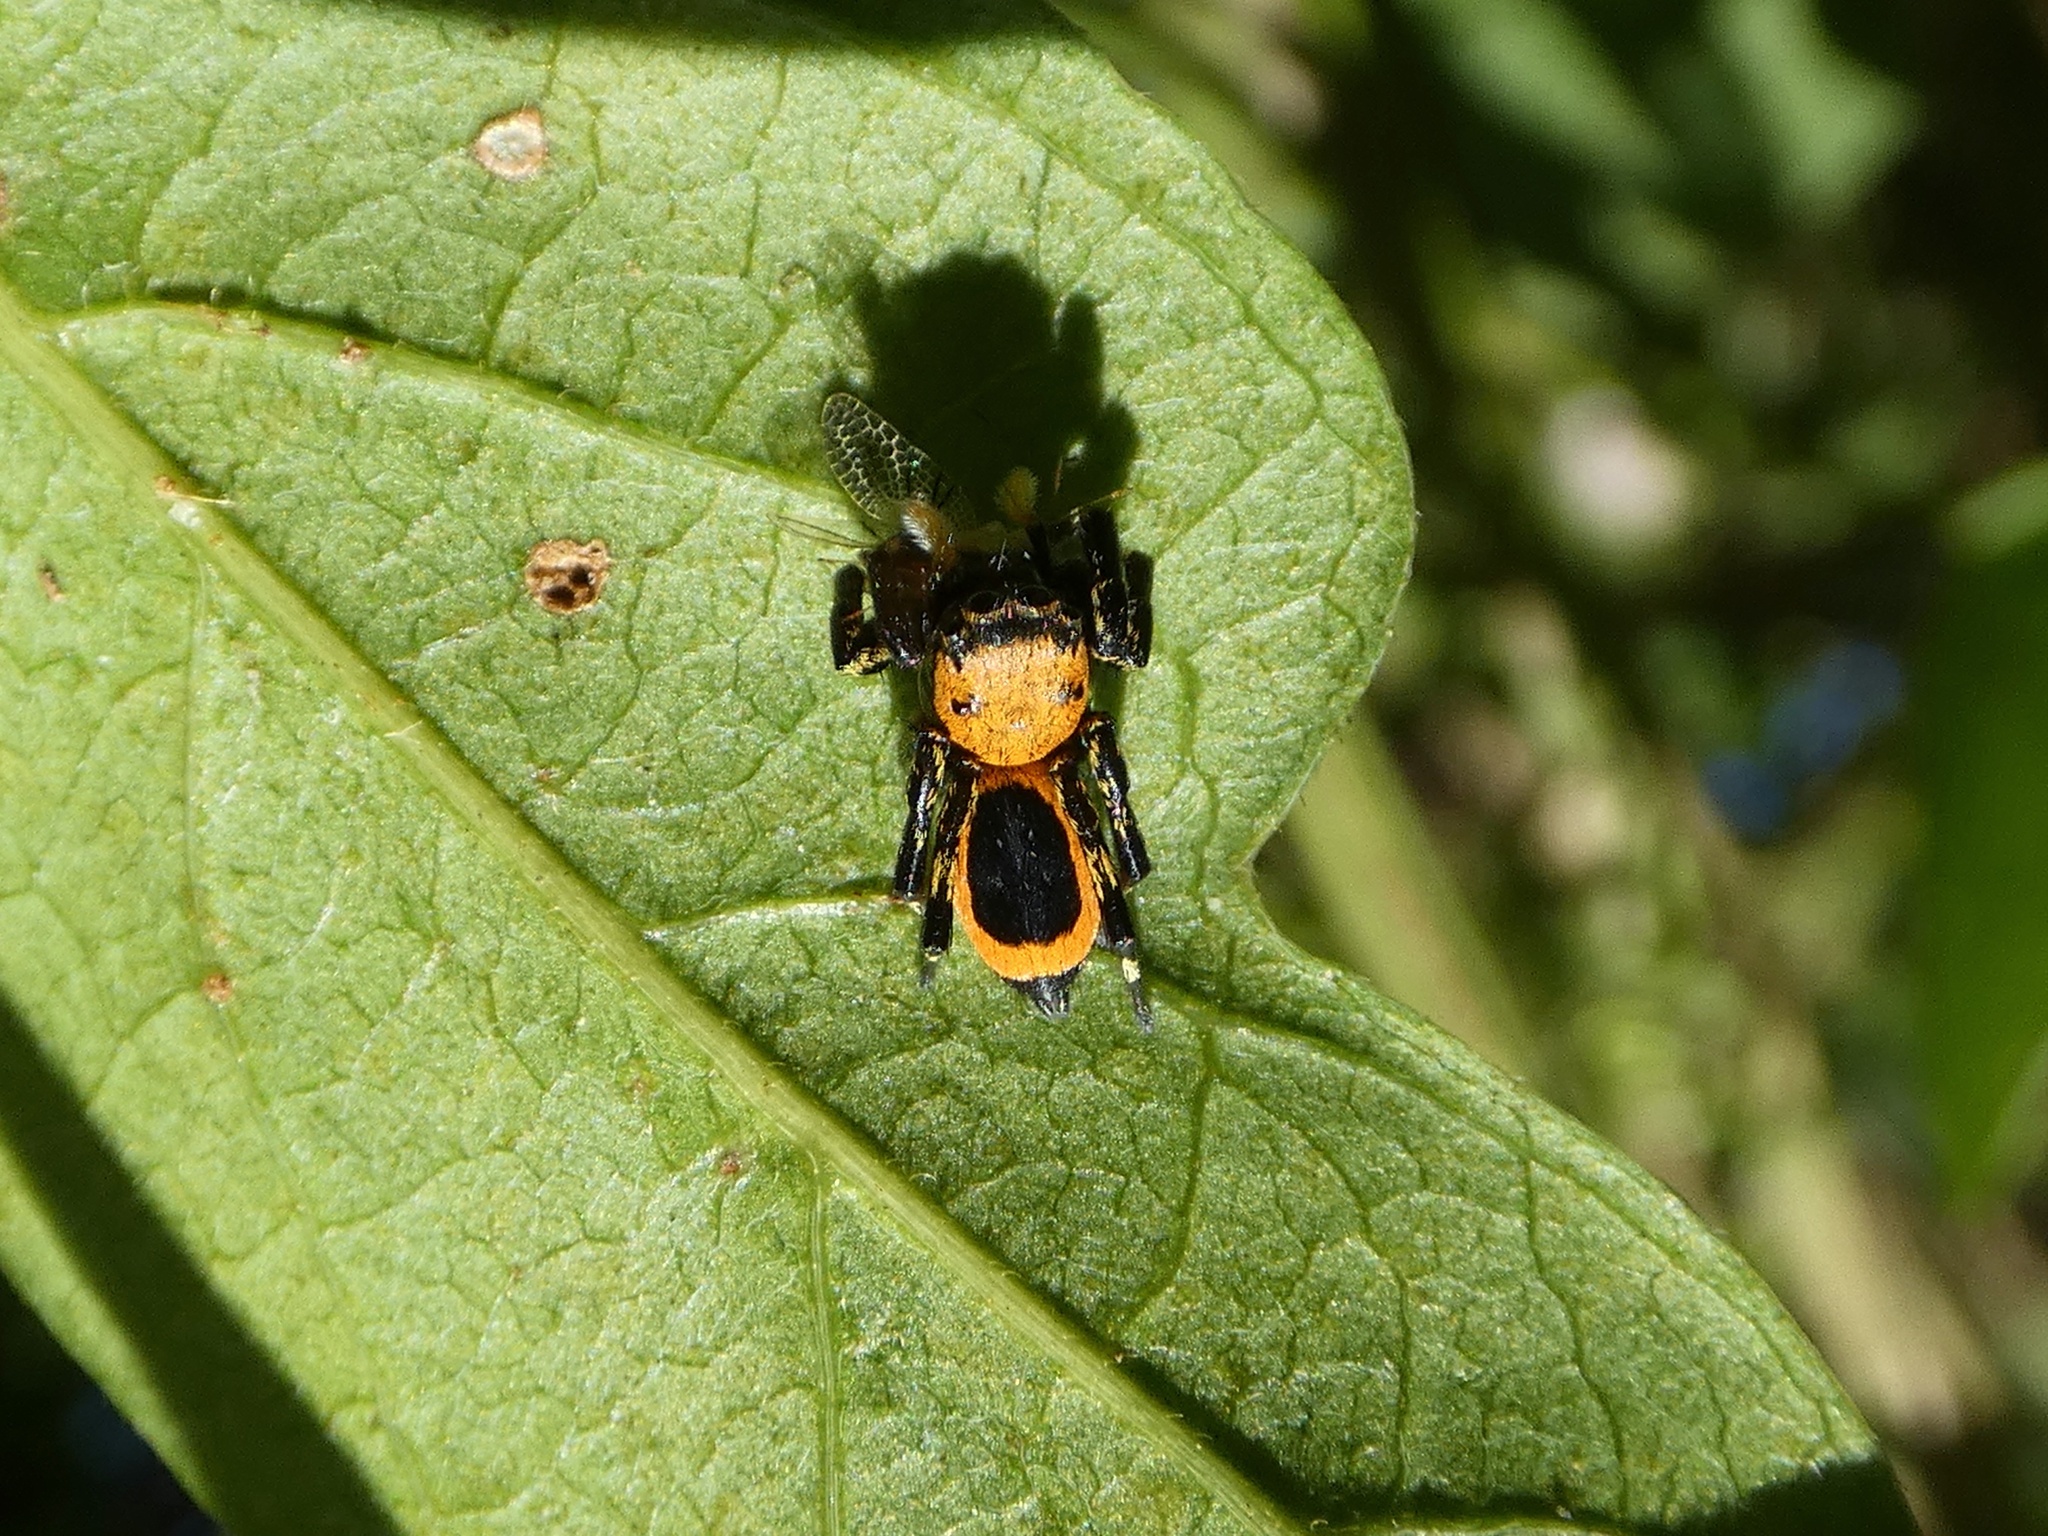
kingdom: Animalia
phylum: Arthropoda
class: Arachnida
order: Araneae
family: Salticidae
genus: Phiale
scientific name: Phiale mimica
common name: Jumping spiders
